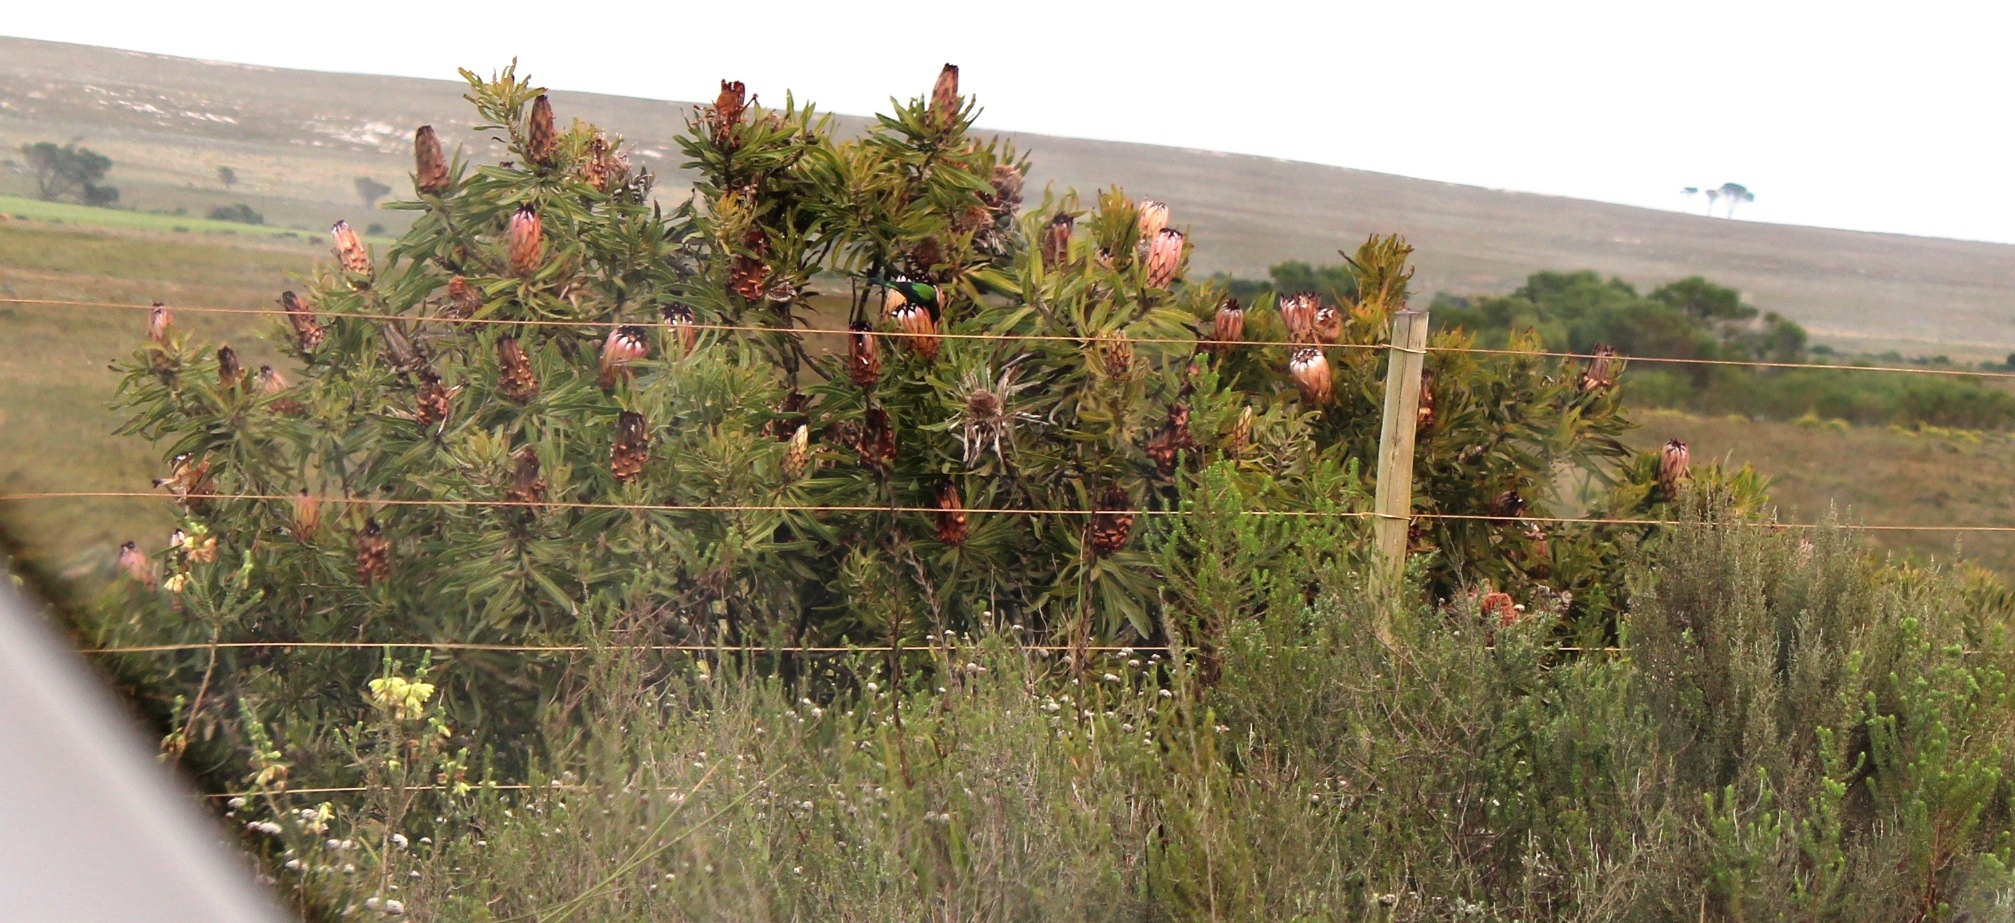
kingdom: Plantae
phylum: Tracheophyta
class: Magnoliopsida
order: Proteales
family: Proteaceae
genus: Protea
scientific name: Protea neriifolia
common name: Blue sugarbush
